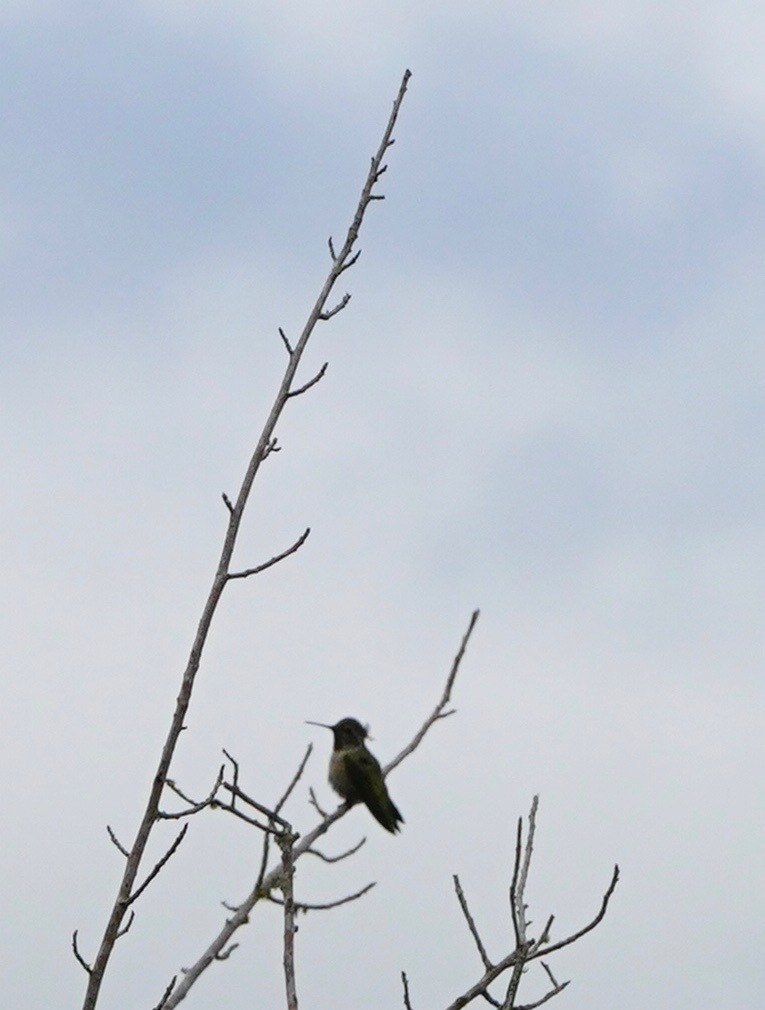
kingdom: Animalia
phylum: Chordata
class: Aves
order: Apodiformes
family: Trochilidae
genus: Calypte
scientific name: Calypte anna
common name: Anna's hummingbird
